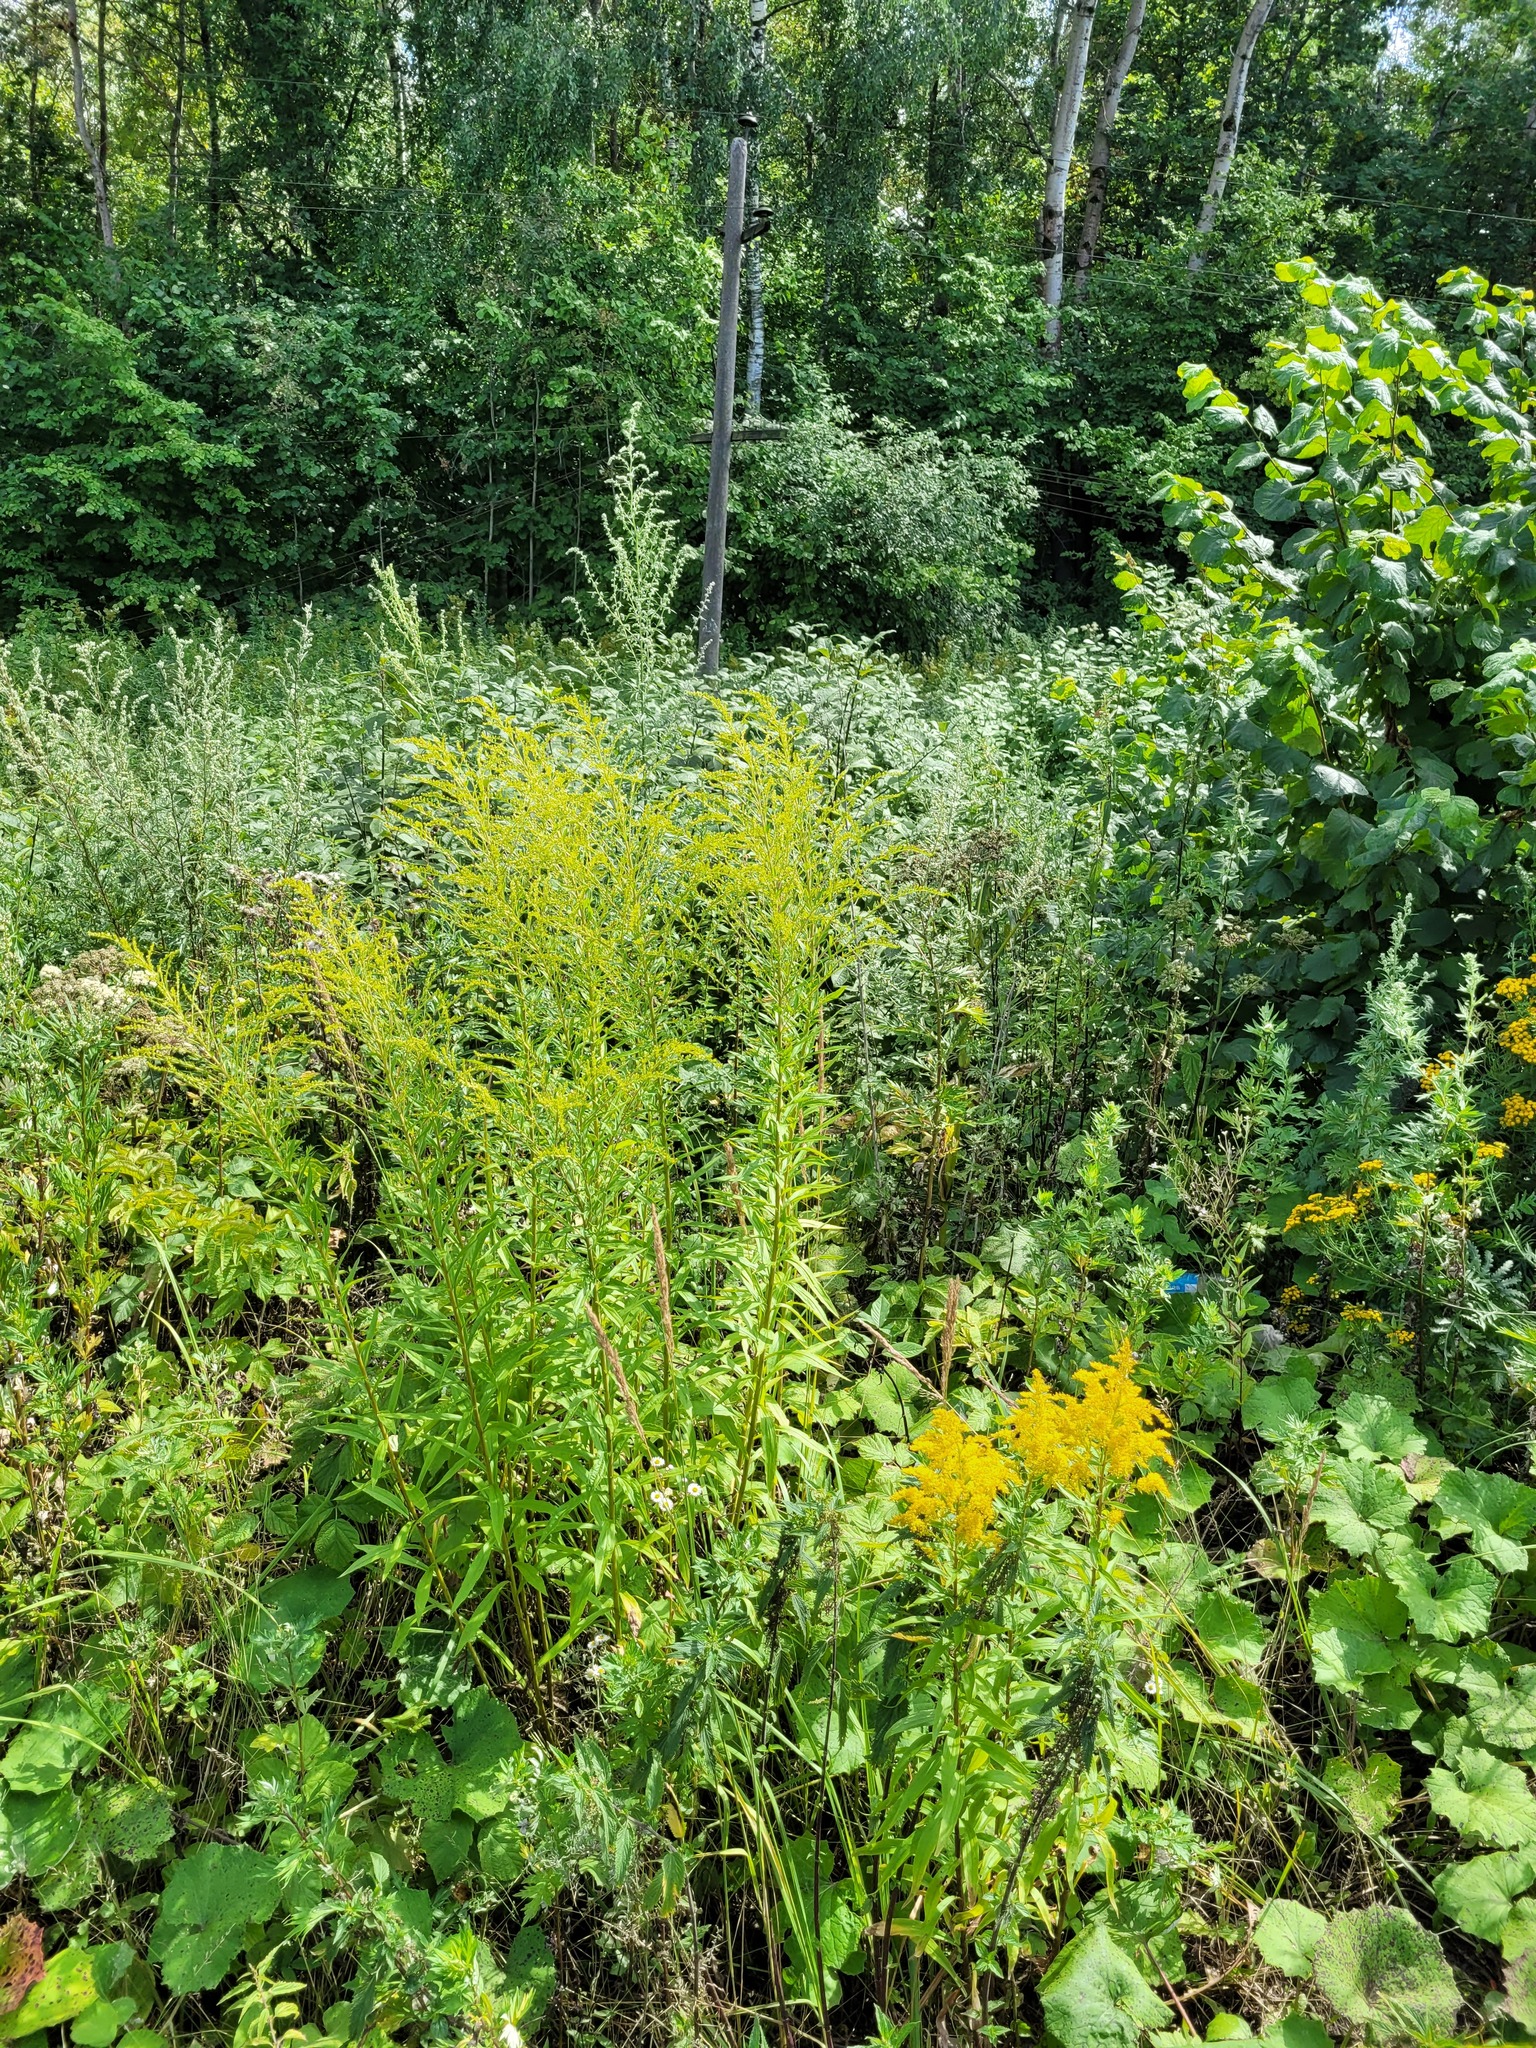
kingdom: Plantae
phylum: Tracheophyta
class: Magnoliopsida
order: Asterales
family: Asteraceae
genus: Solidago
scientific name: Solidago canadensis
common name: Canada goldenrod
